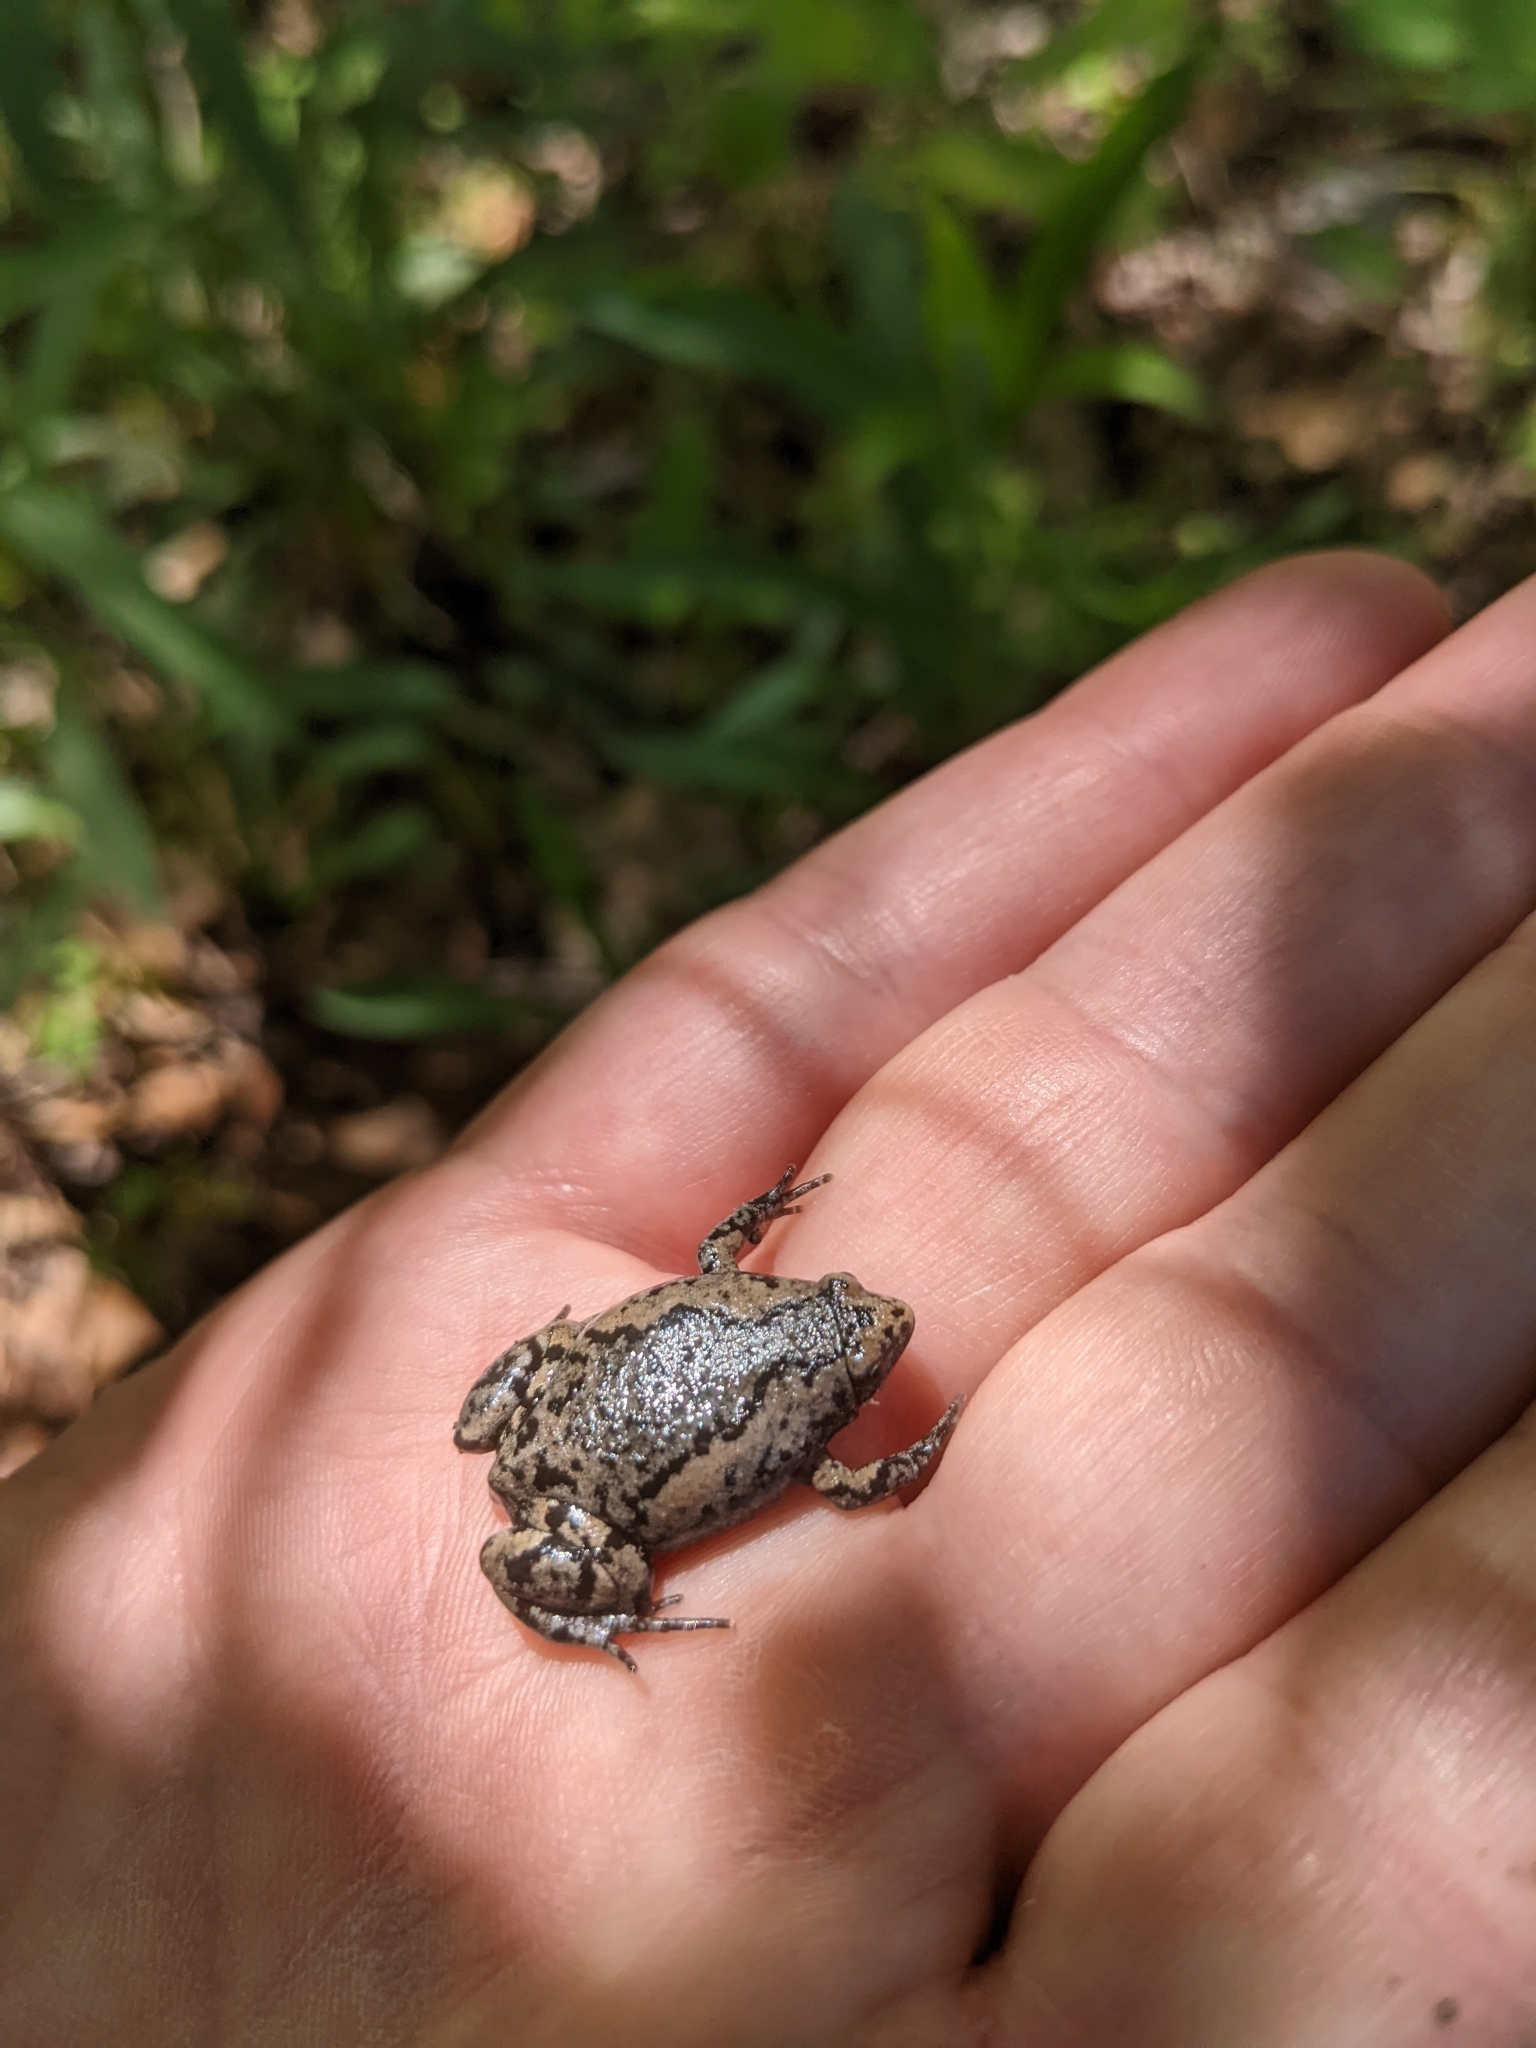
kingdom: Animalia
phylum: Chordata
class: Amphibia
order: Anura
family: Microhylidae
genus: Gastrophryne
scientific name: Gastrophryne carolinensis
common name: Eastern narrowmouth toad
